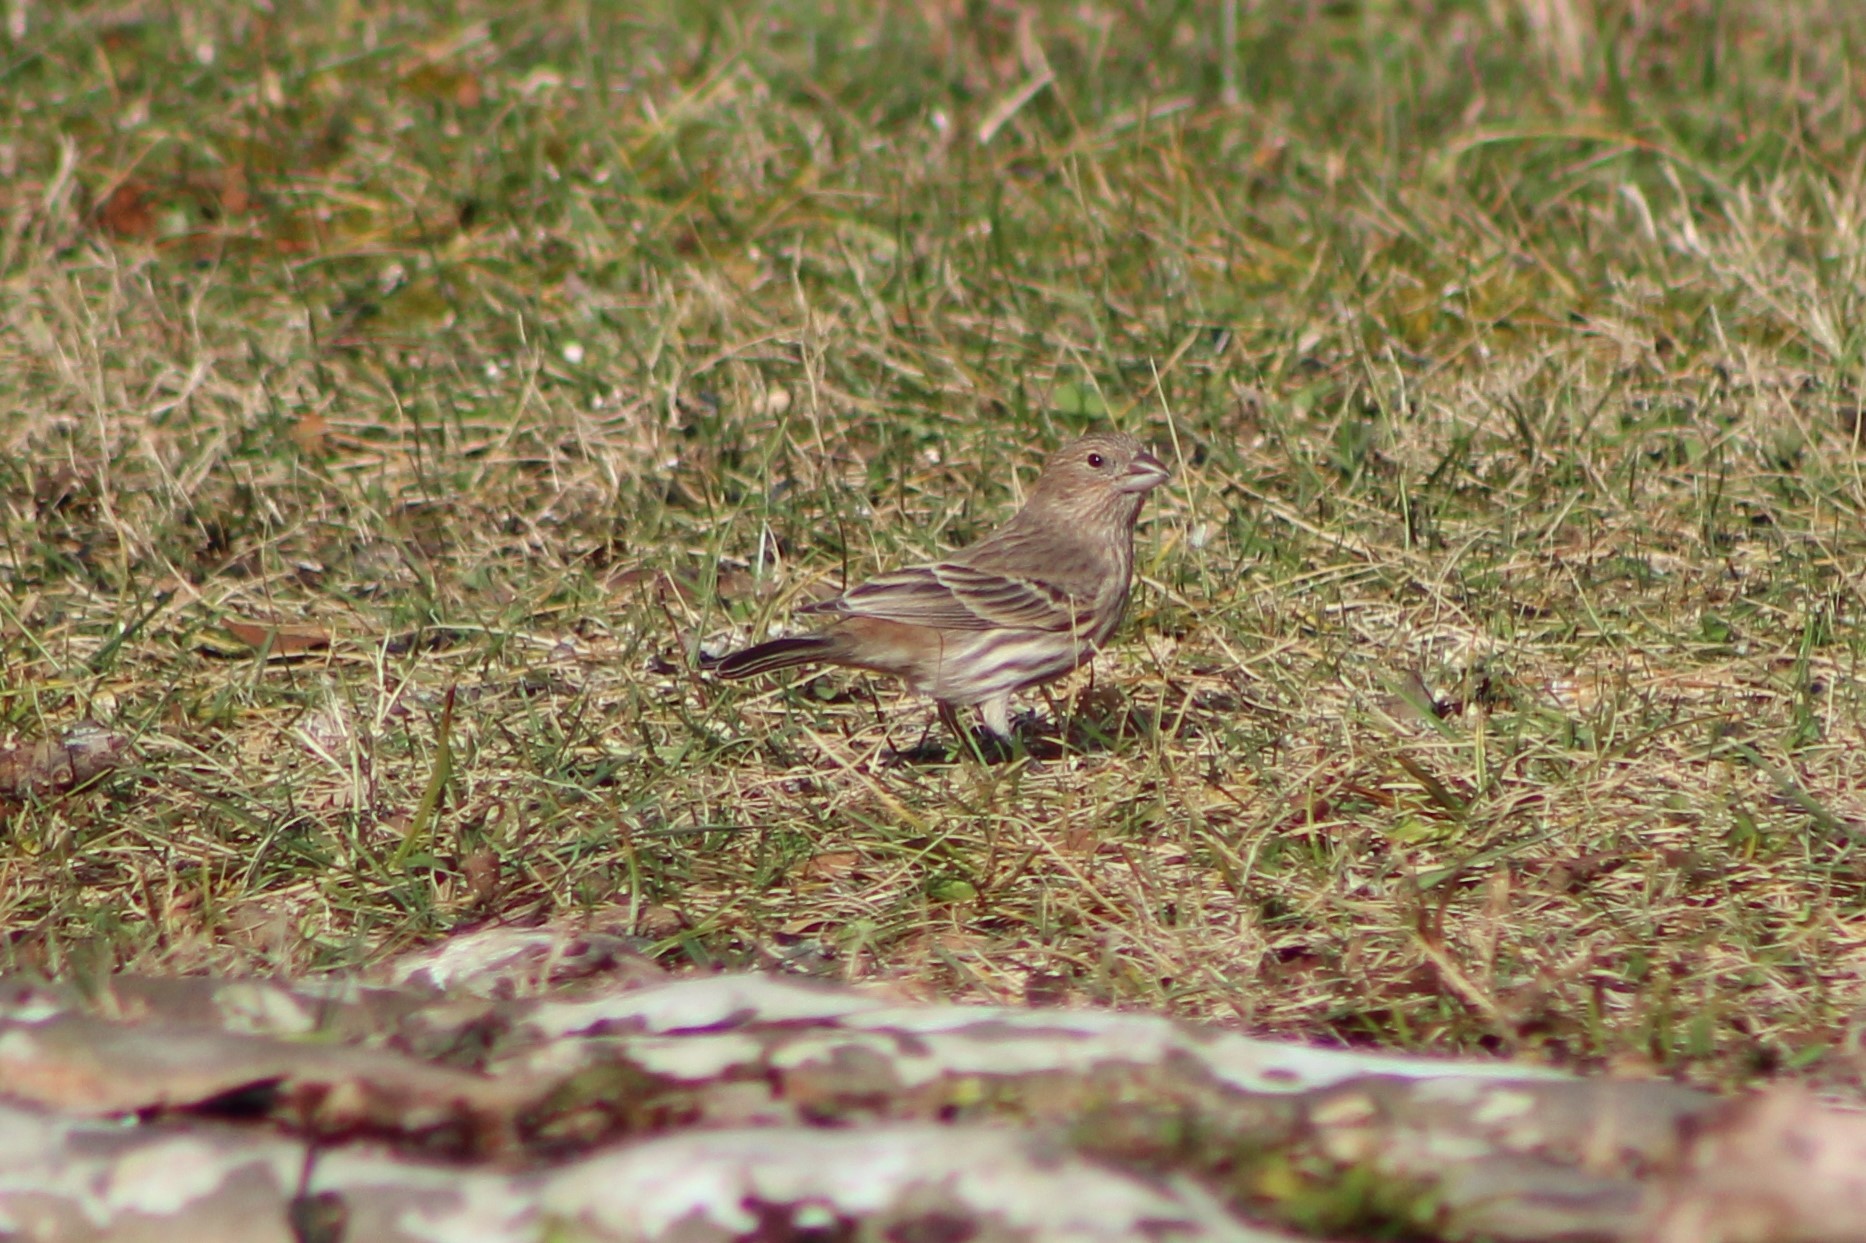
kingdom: Animalia
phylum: Chordata
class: Aves
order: Passeriformes
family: Fringillidae
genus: Haemorhous
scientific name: Haemorhous mexicanus
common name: House finch
